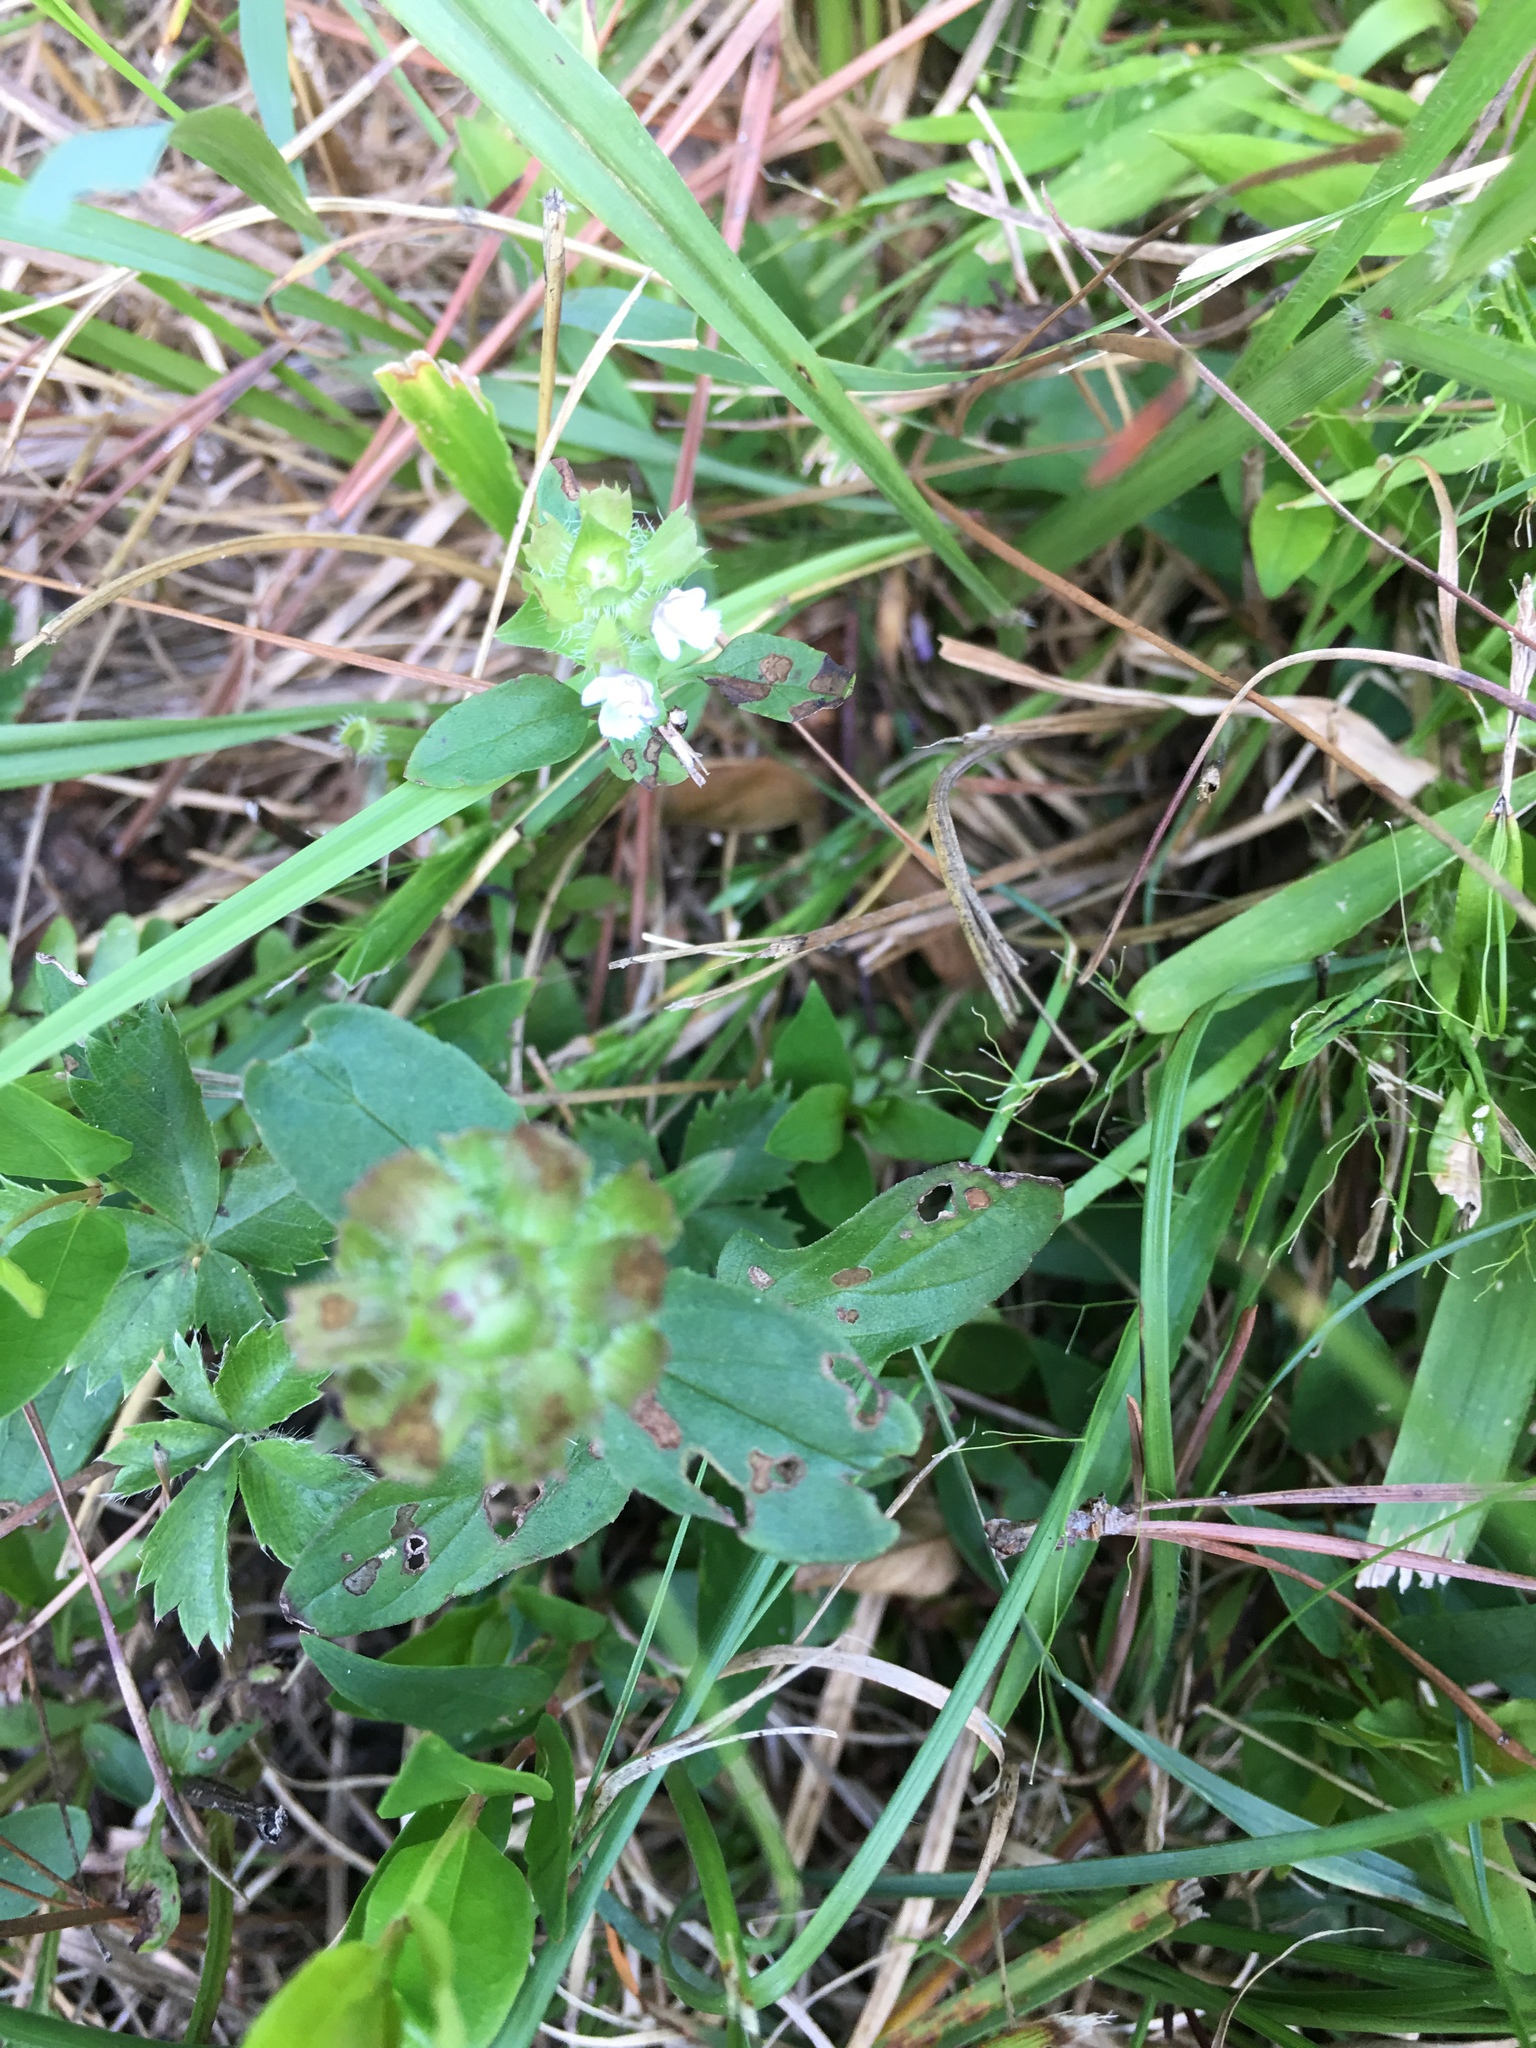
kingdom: Plantae
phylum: Tracheophyta
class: Magnoliopsida
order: Lamiales
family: Lamiaceae
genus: Prunella
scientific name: Prunella vulgaris
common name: Heal-all
